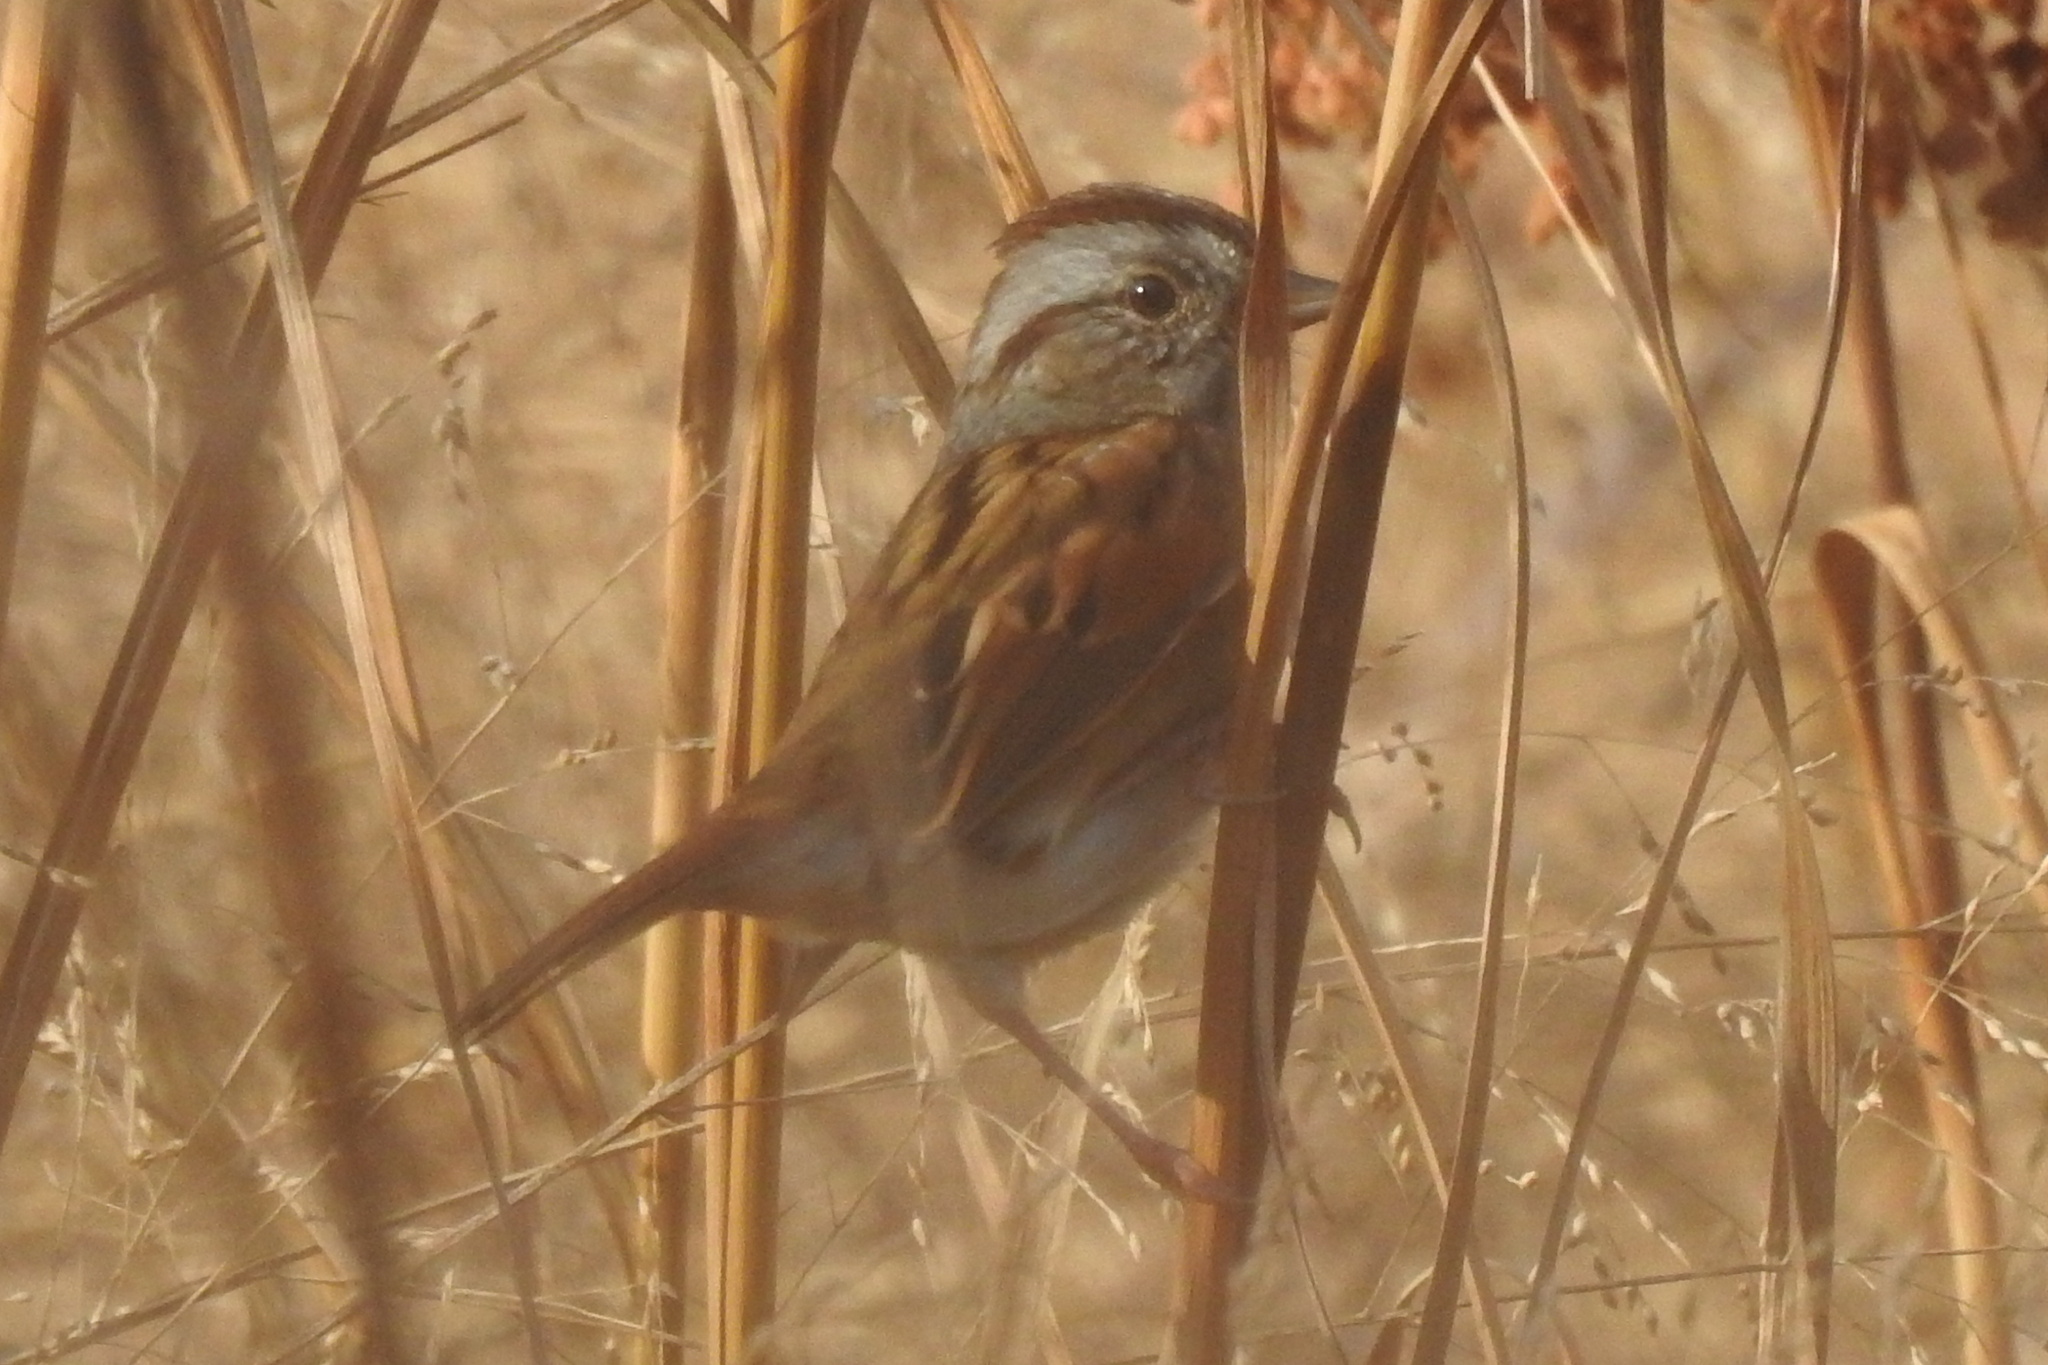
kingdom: Animalia
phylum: Chordata
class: Aves
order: Passeriformes
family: Passerellidae
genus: Melospiza
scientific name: Melospiza georgiana
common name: Swamp sparrow
